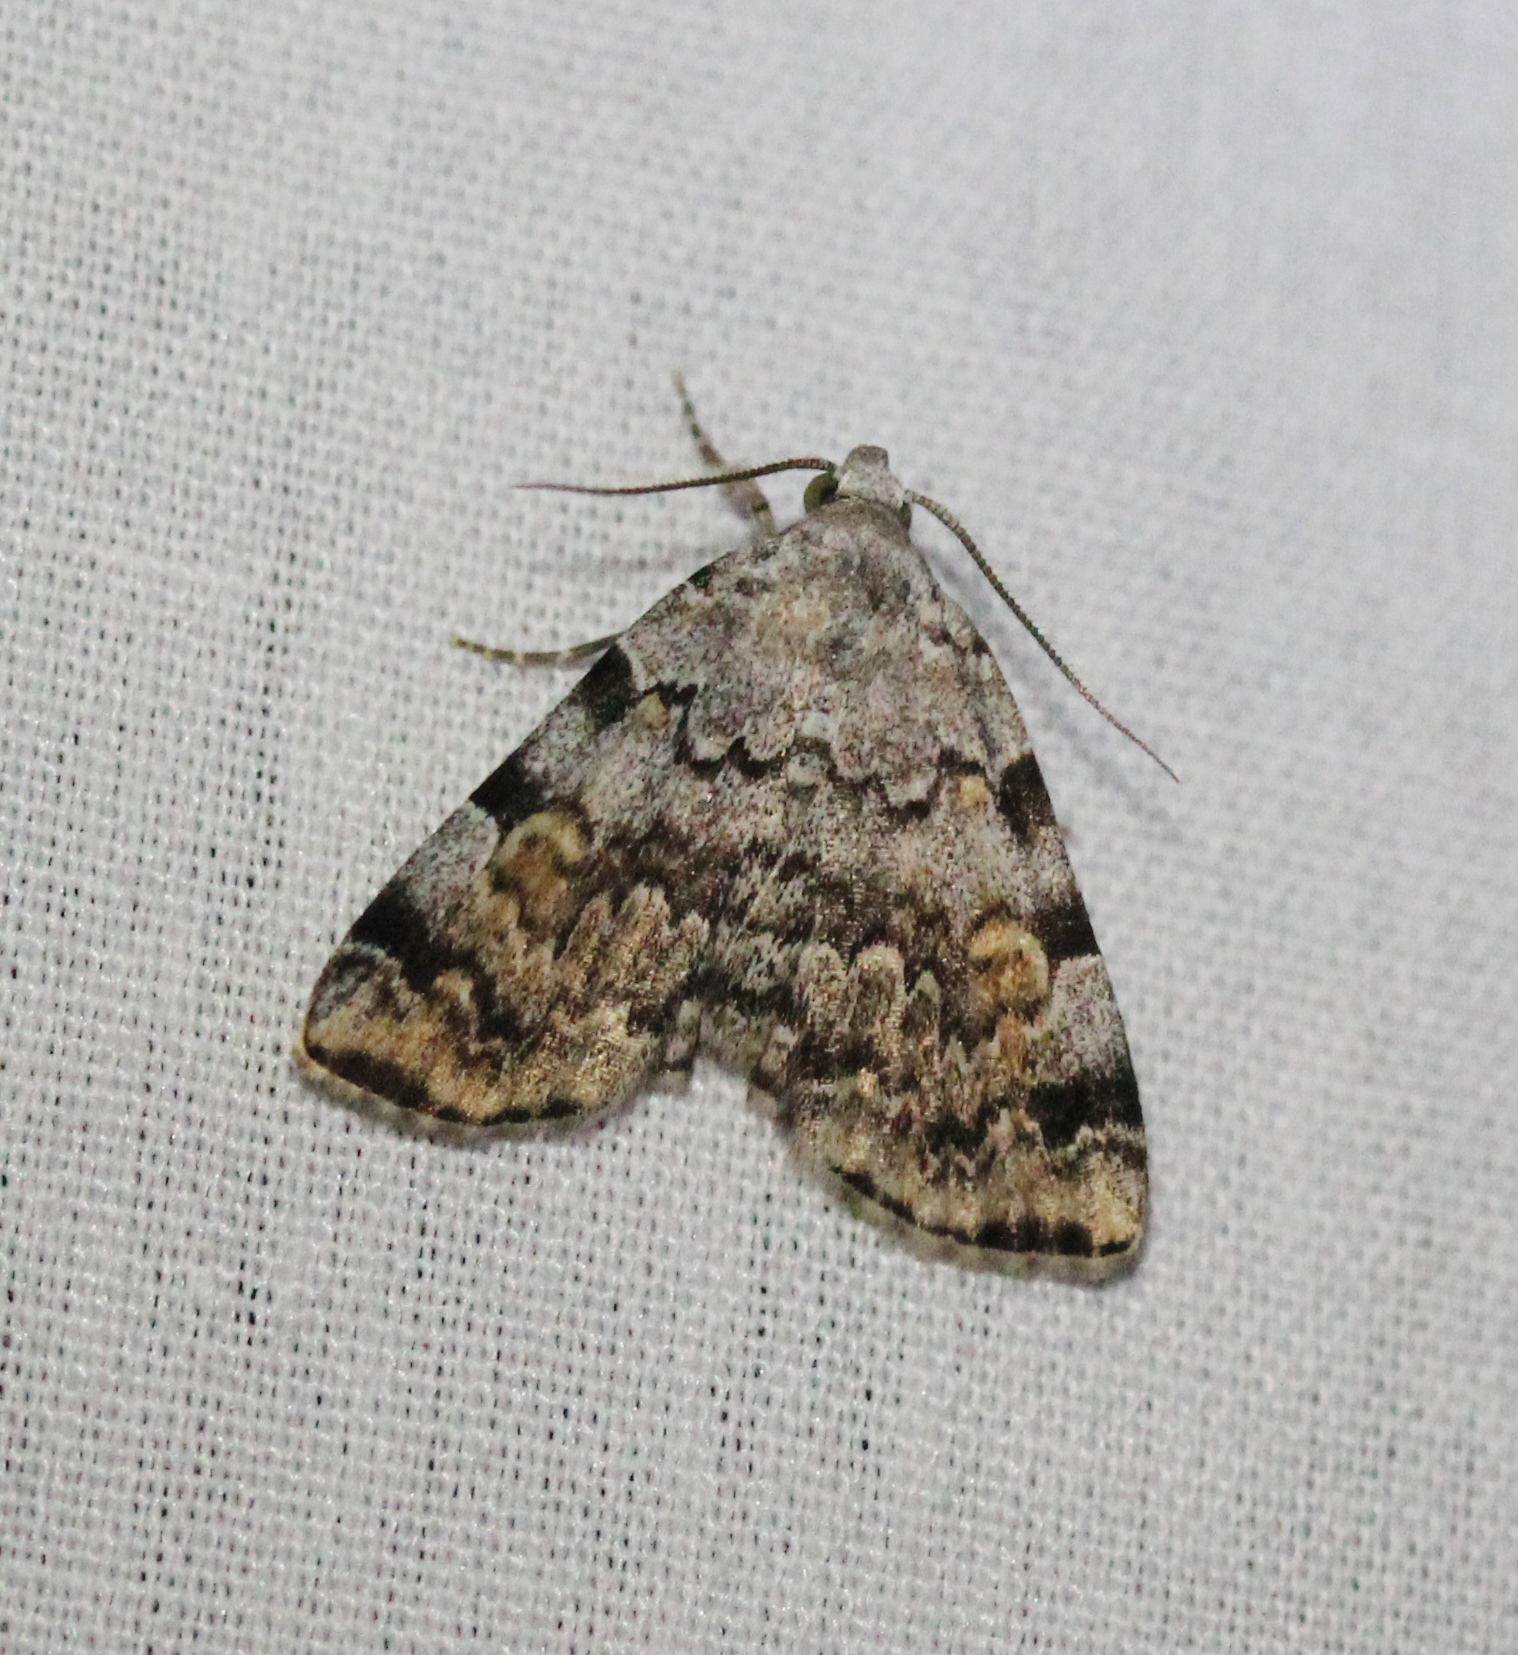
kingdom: Animalia
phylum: Arthropoda
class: Insecta
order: Lepidoptera
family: Erebidae
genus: Idia
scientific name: Idia americalis
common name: American idia moth
